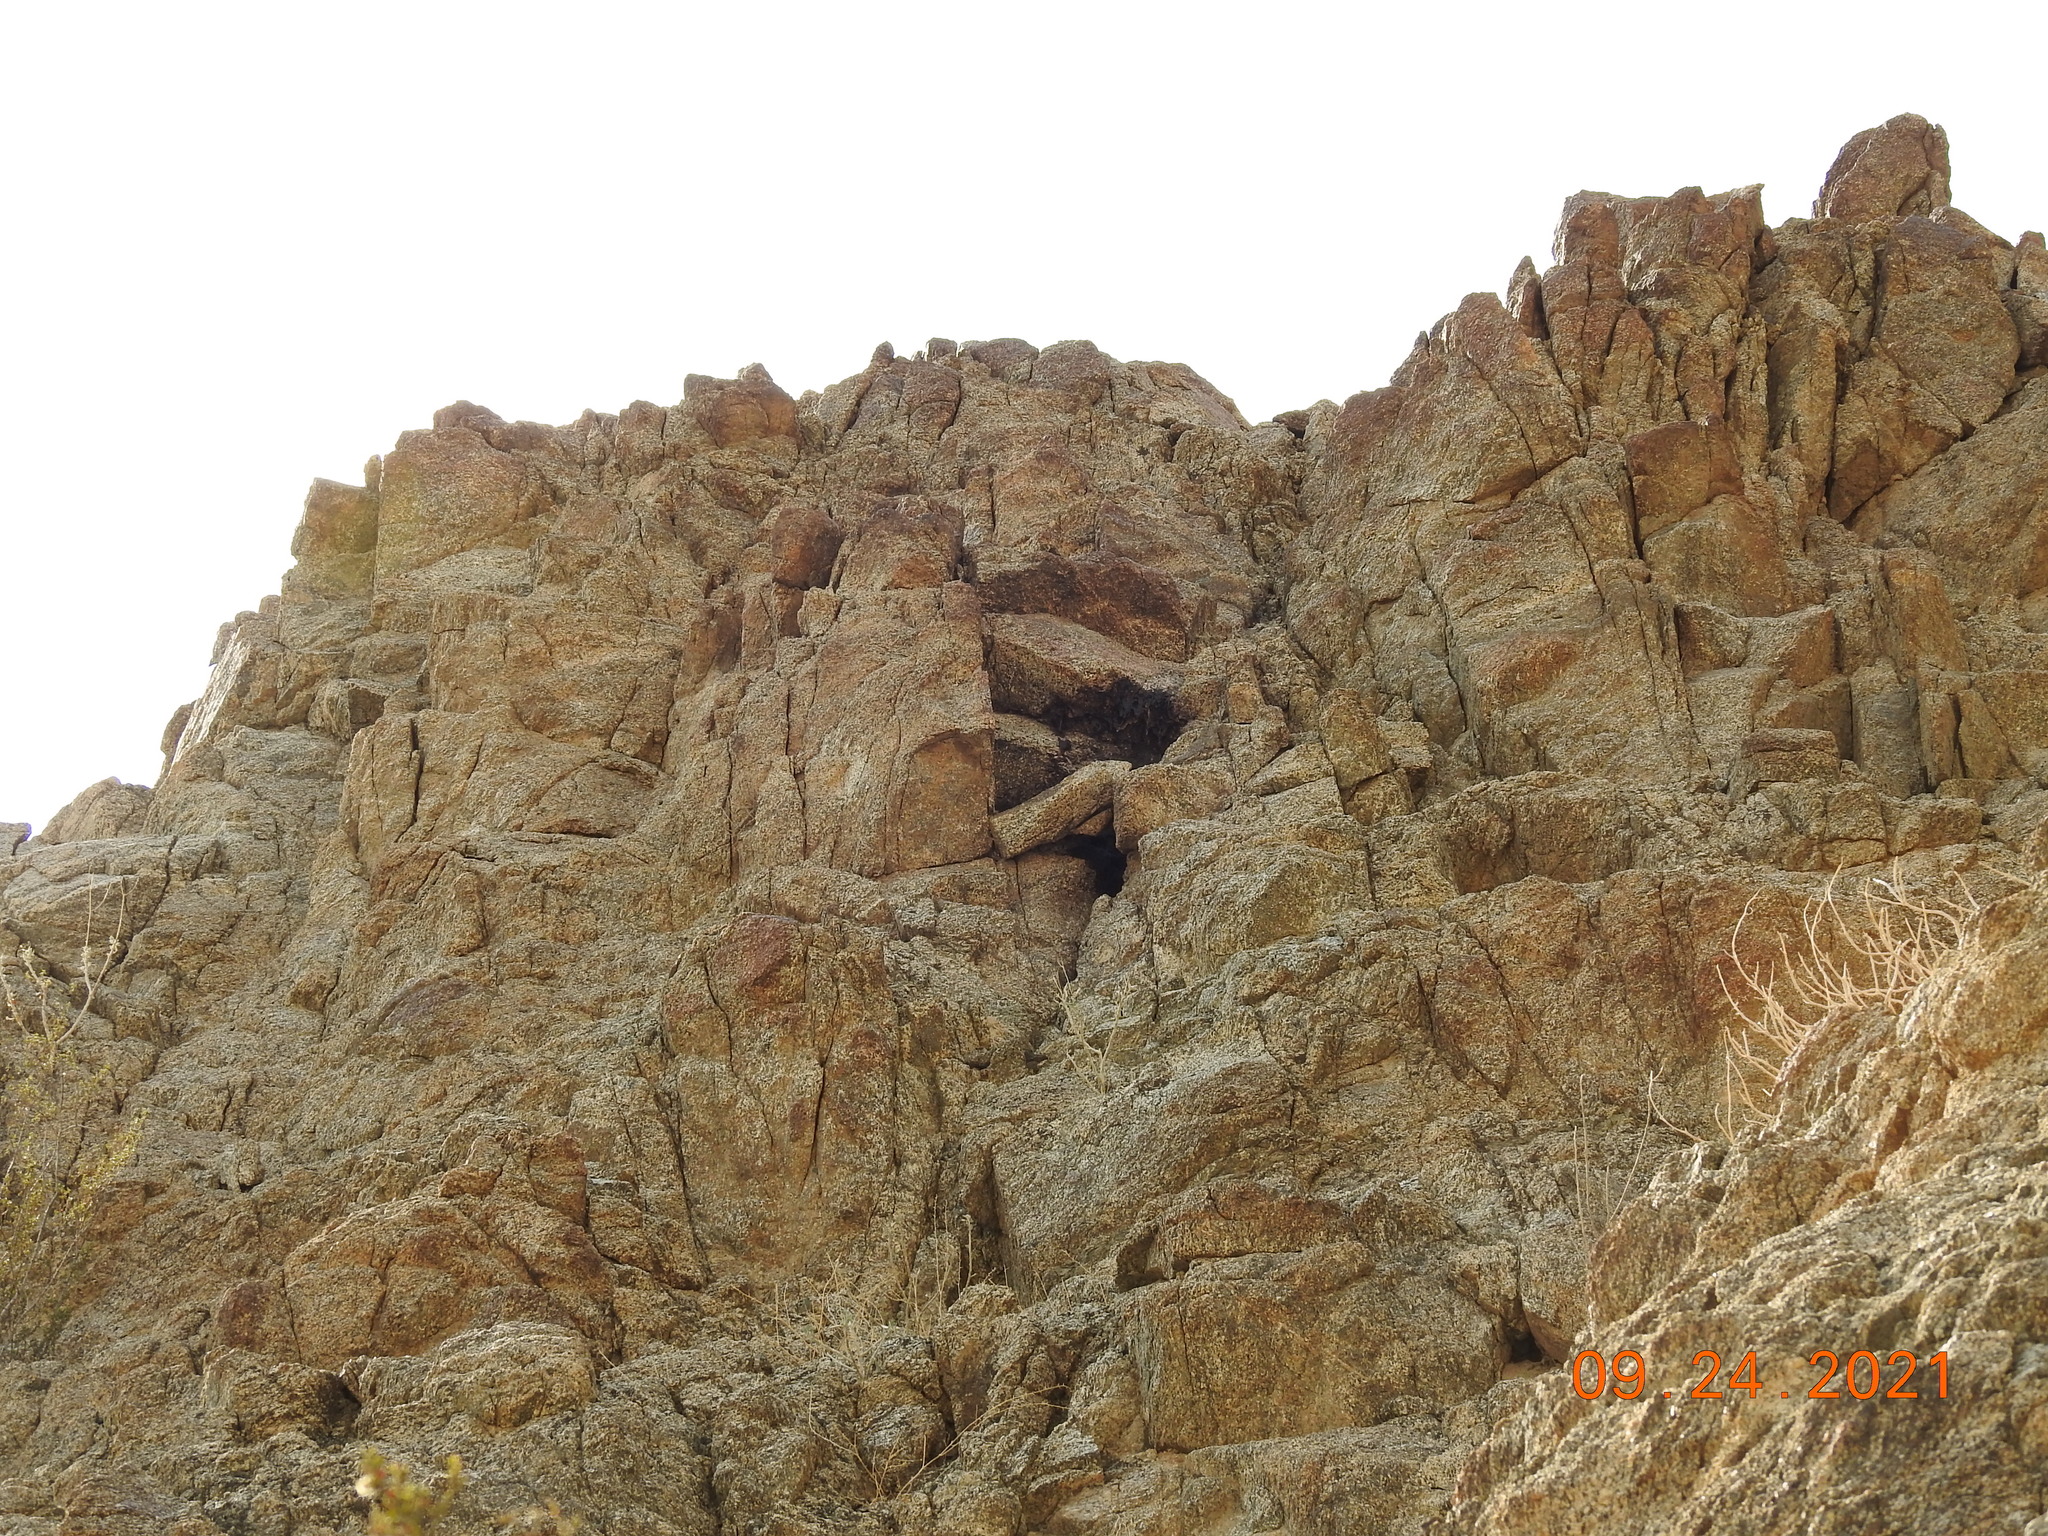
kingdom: Animalia
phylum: Arthropoda
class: Insecta
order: Hymenoptera
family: Apidae
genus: Apis
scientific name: Apis mellifera
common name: Honey bee
